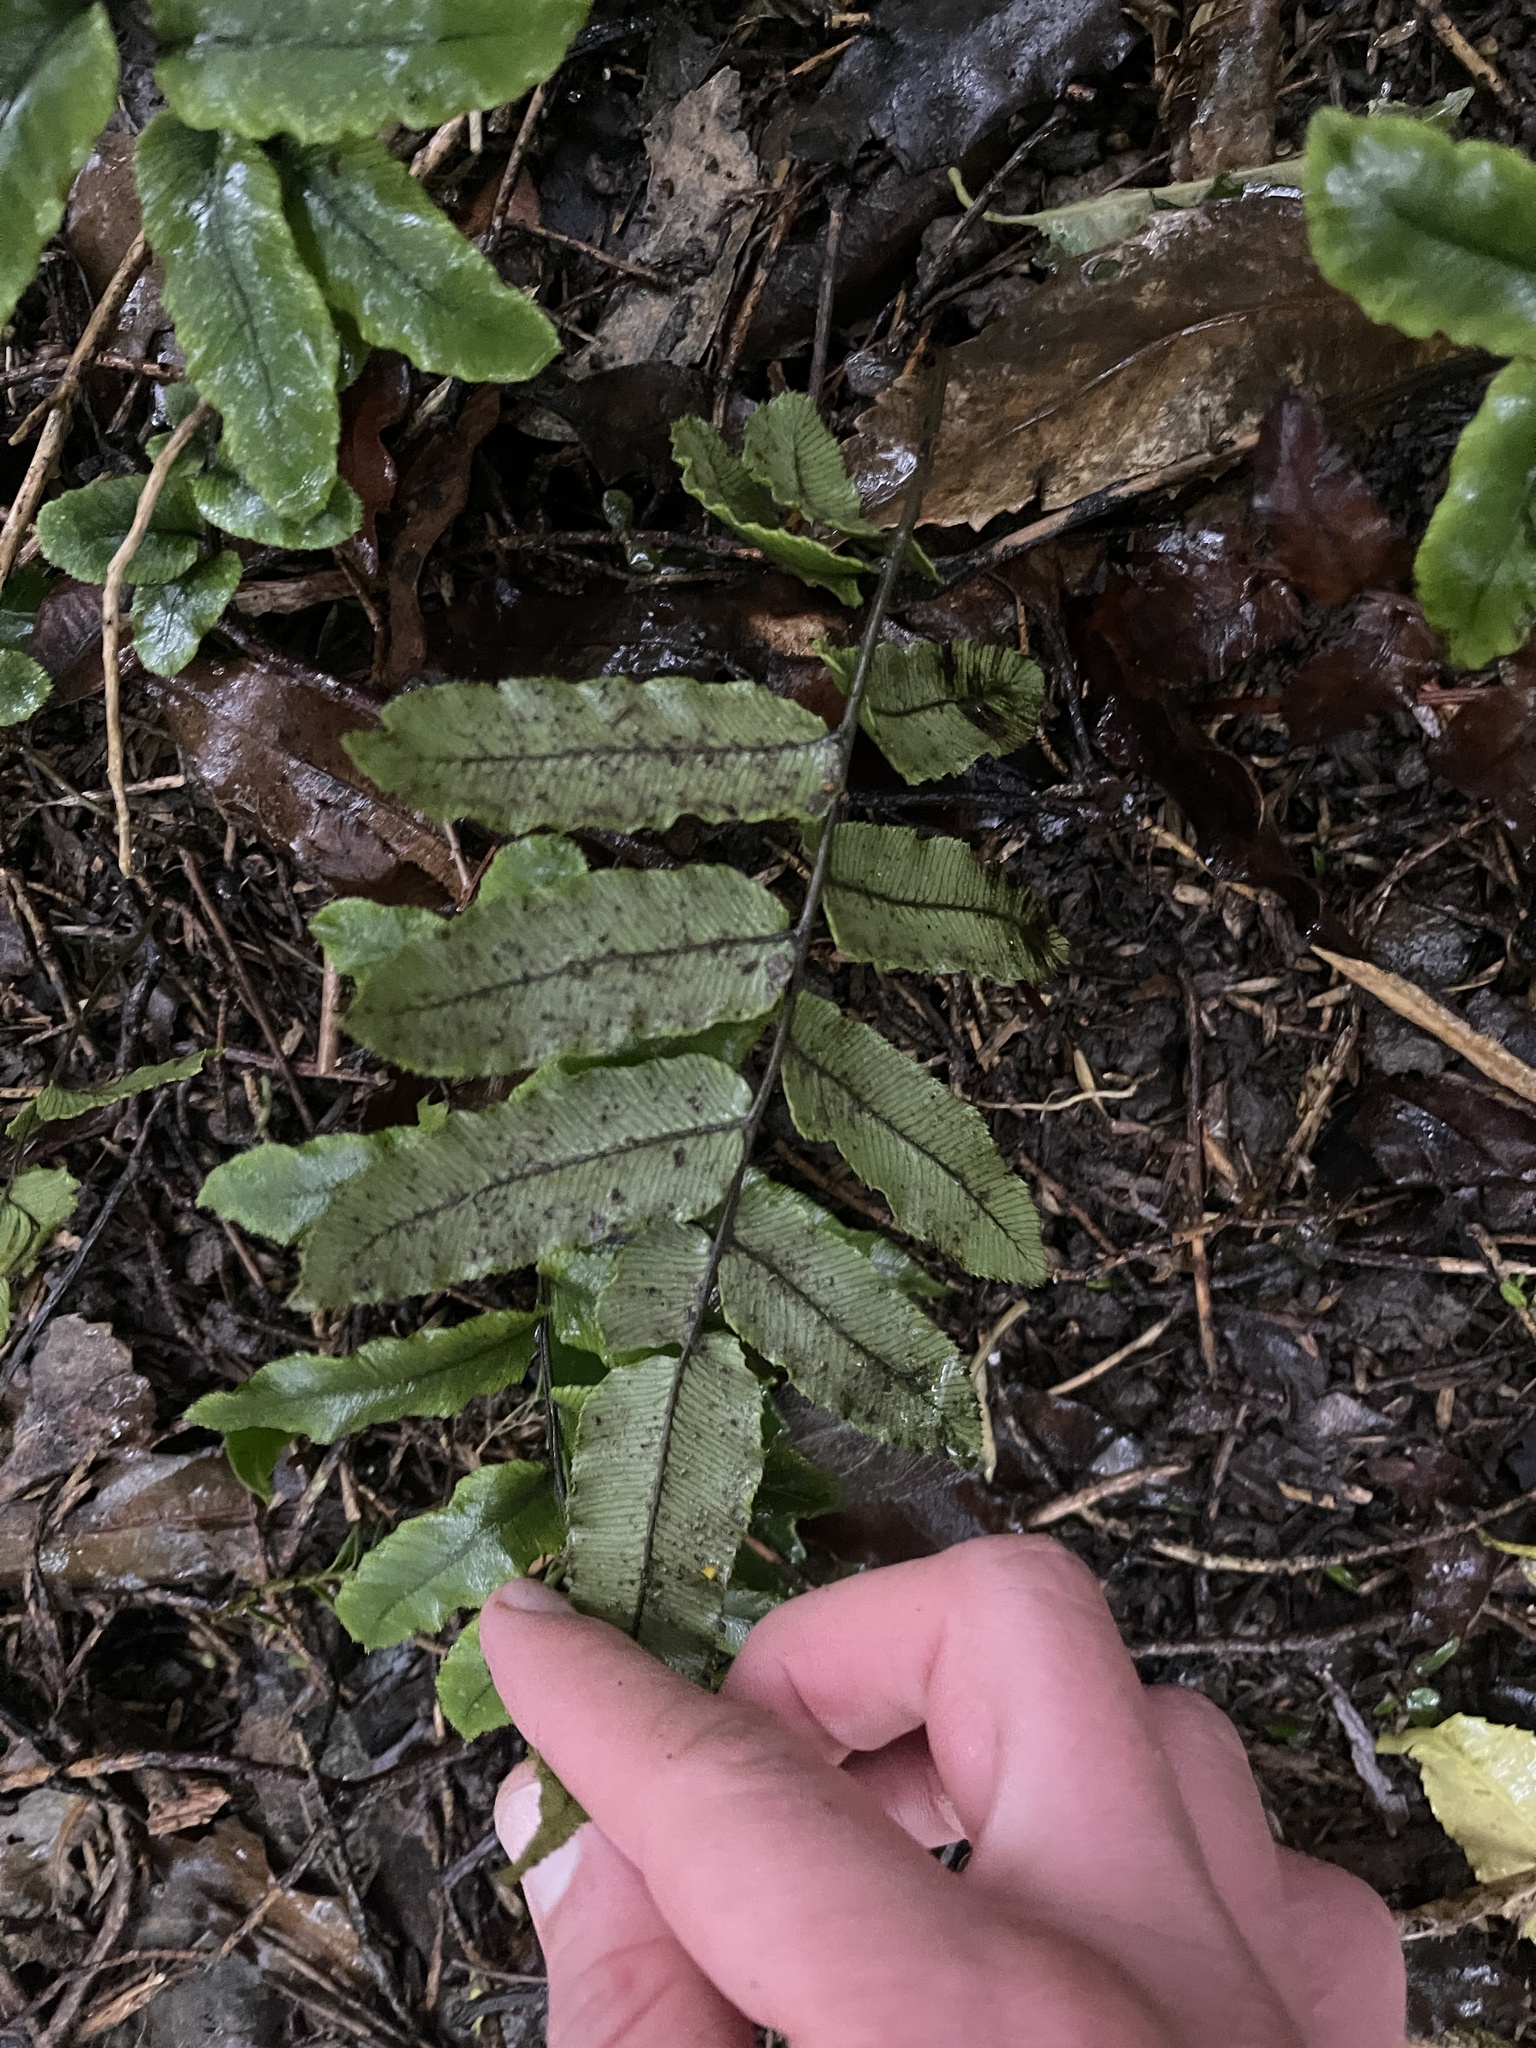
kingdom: Plantae
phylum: Tracheophyta
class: Polypodiopsida
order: Polypodiales
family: Blechnaceae
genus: Parablechnum
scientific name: Parablechnum procerum
